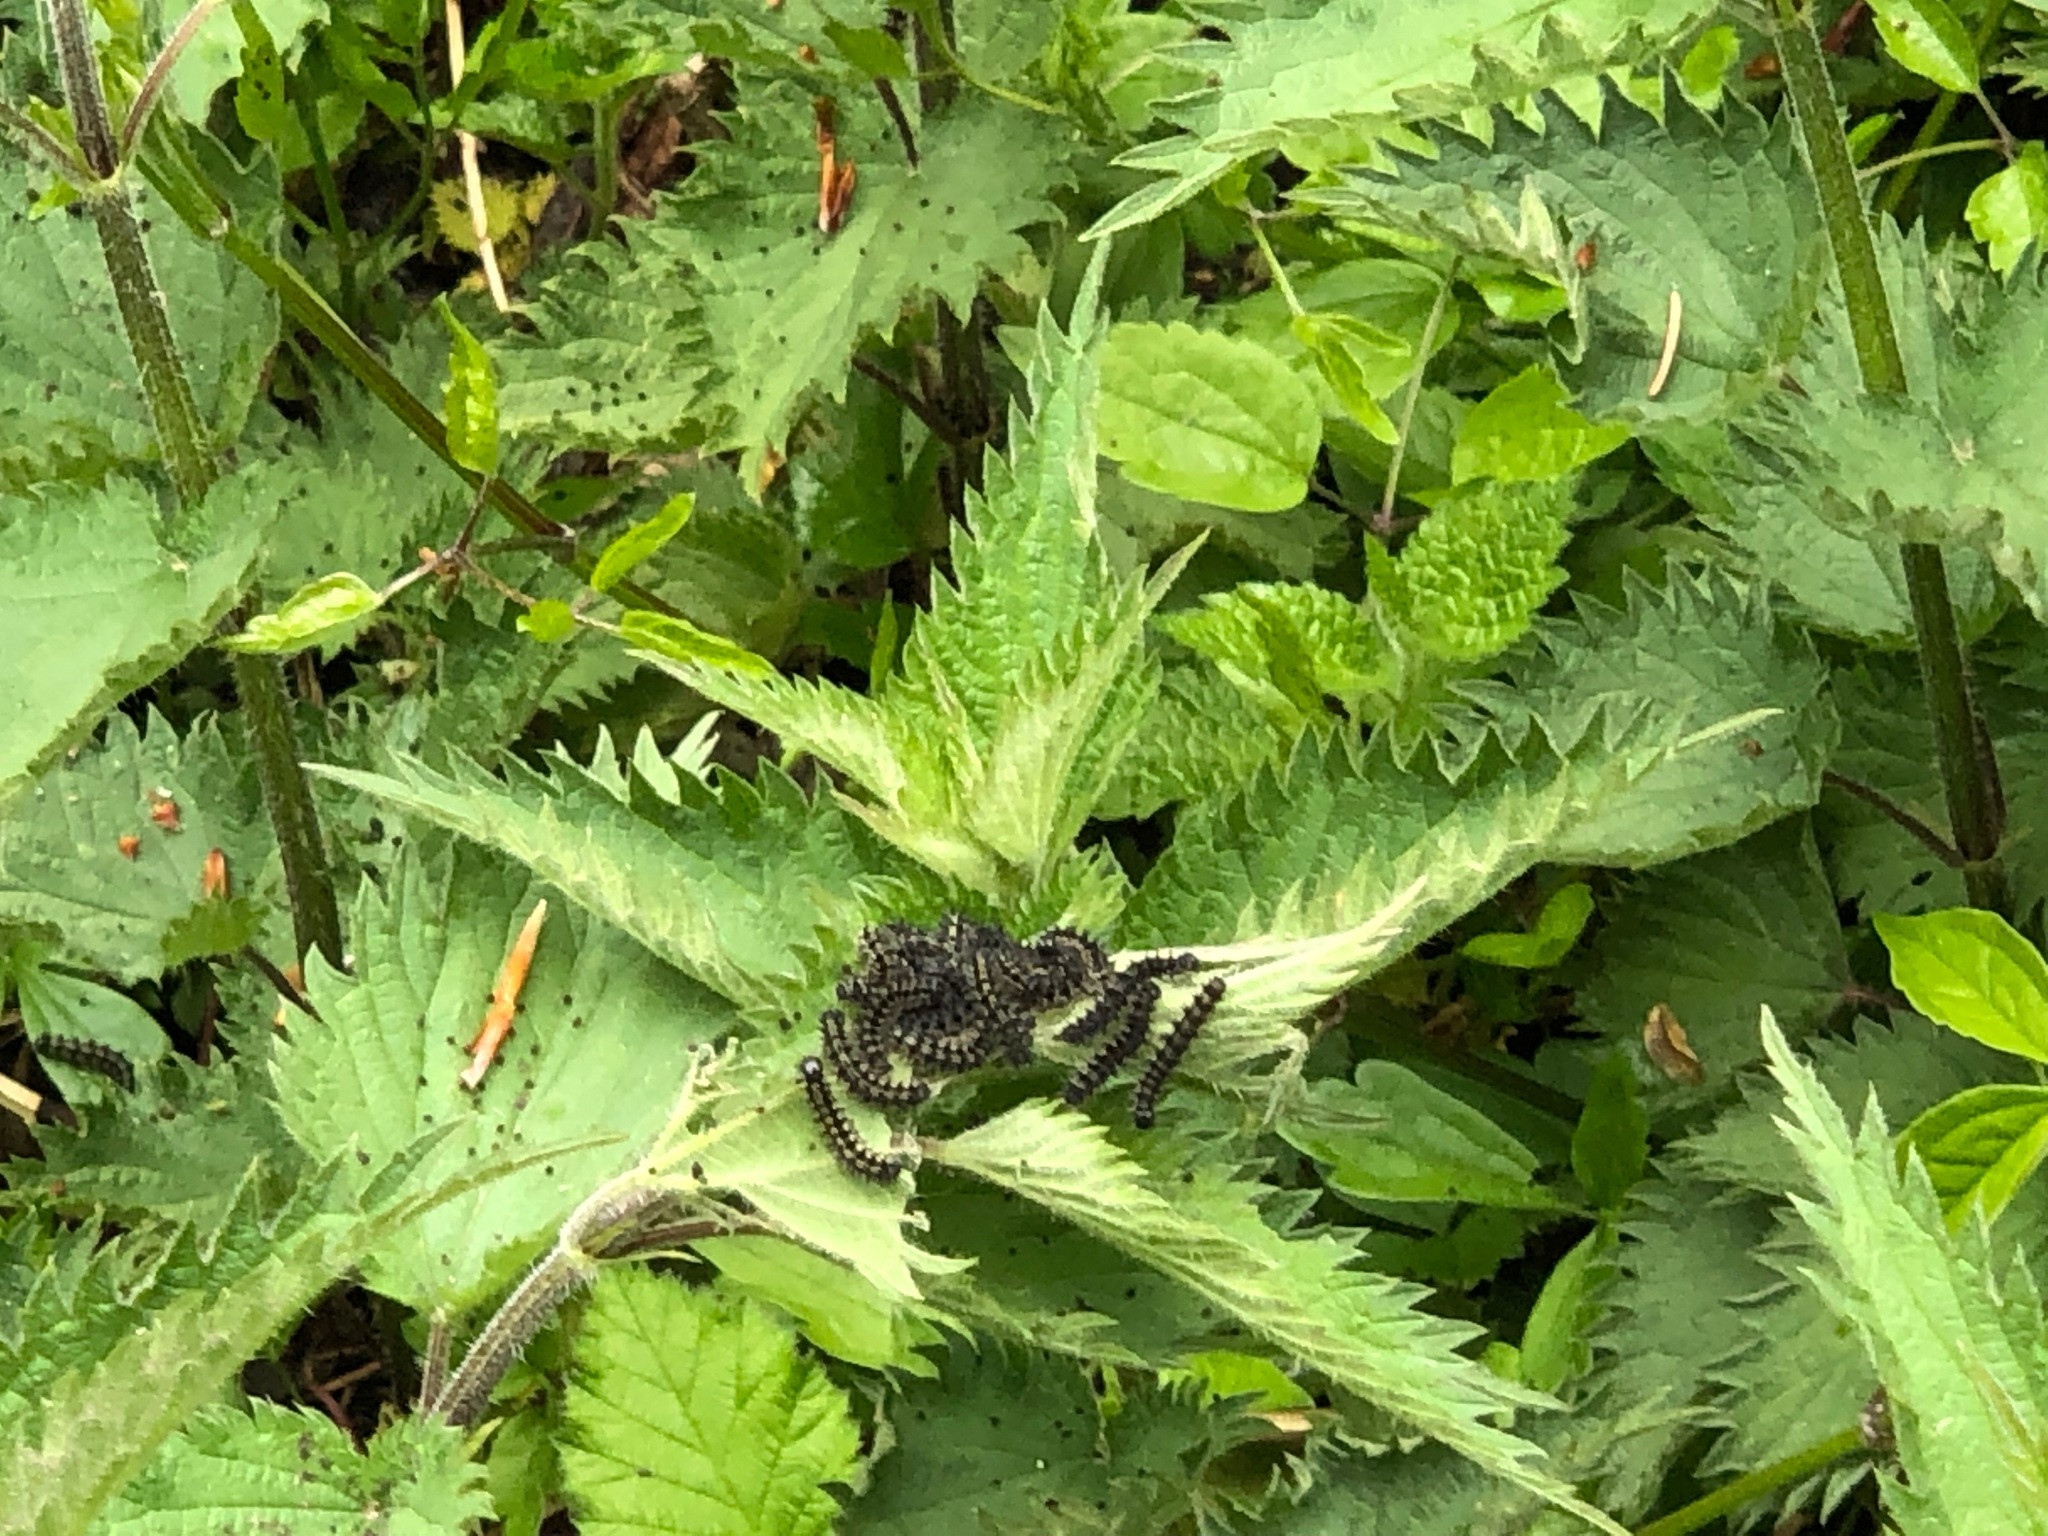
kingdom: Animalia
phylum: Arthropoda
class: Insecta
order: Lepidoptera
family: Nymphalidae
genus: Aglais
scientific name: Aglais urticae
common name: Small tortoiseshell
